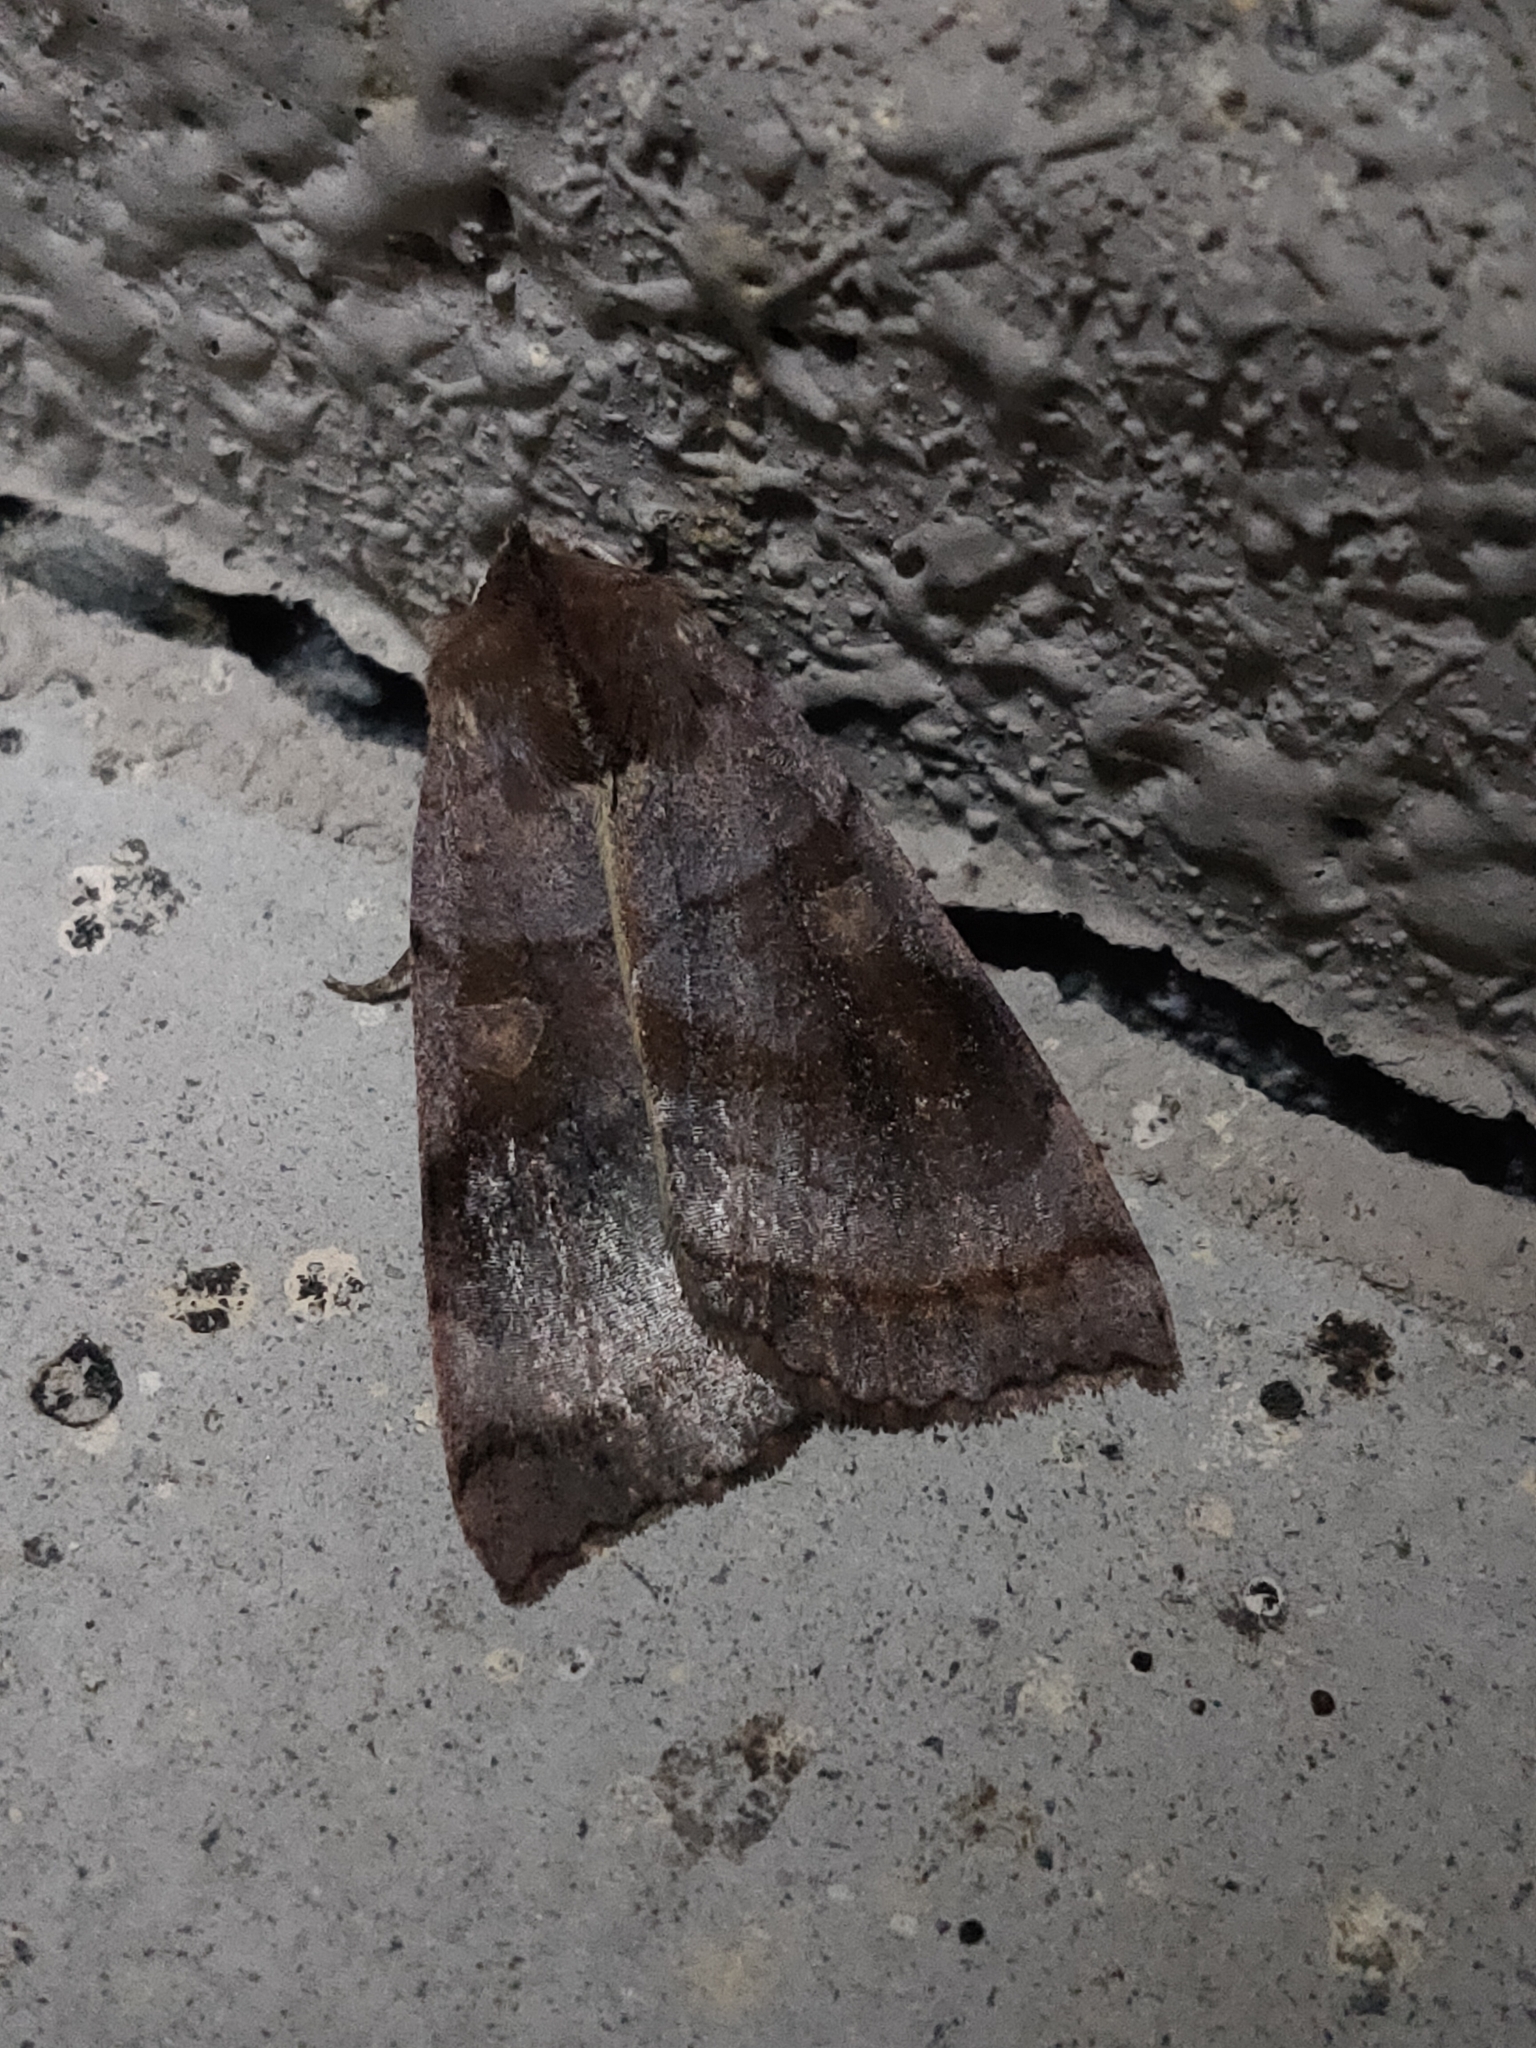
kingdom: Animalia
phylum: Arthropoda
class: Insecta
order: Lepidoptera
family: Noctuidae
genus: Xestia
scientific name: Xestia dilatata
